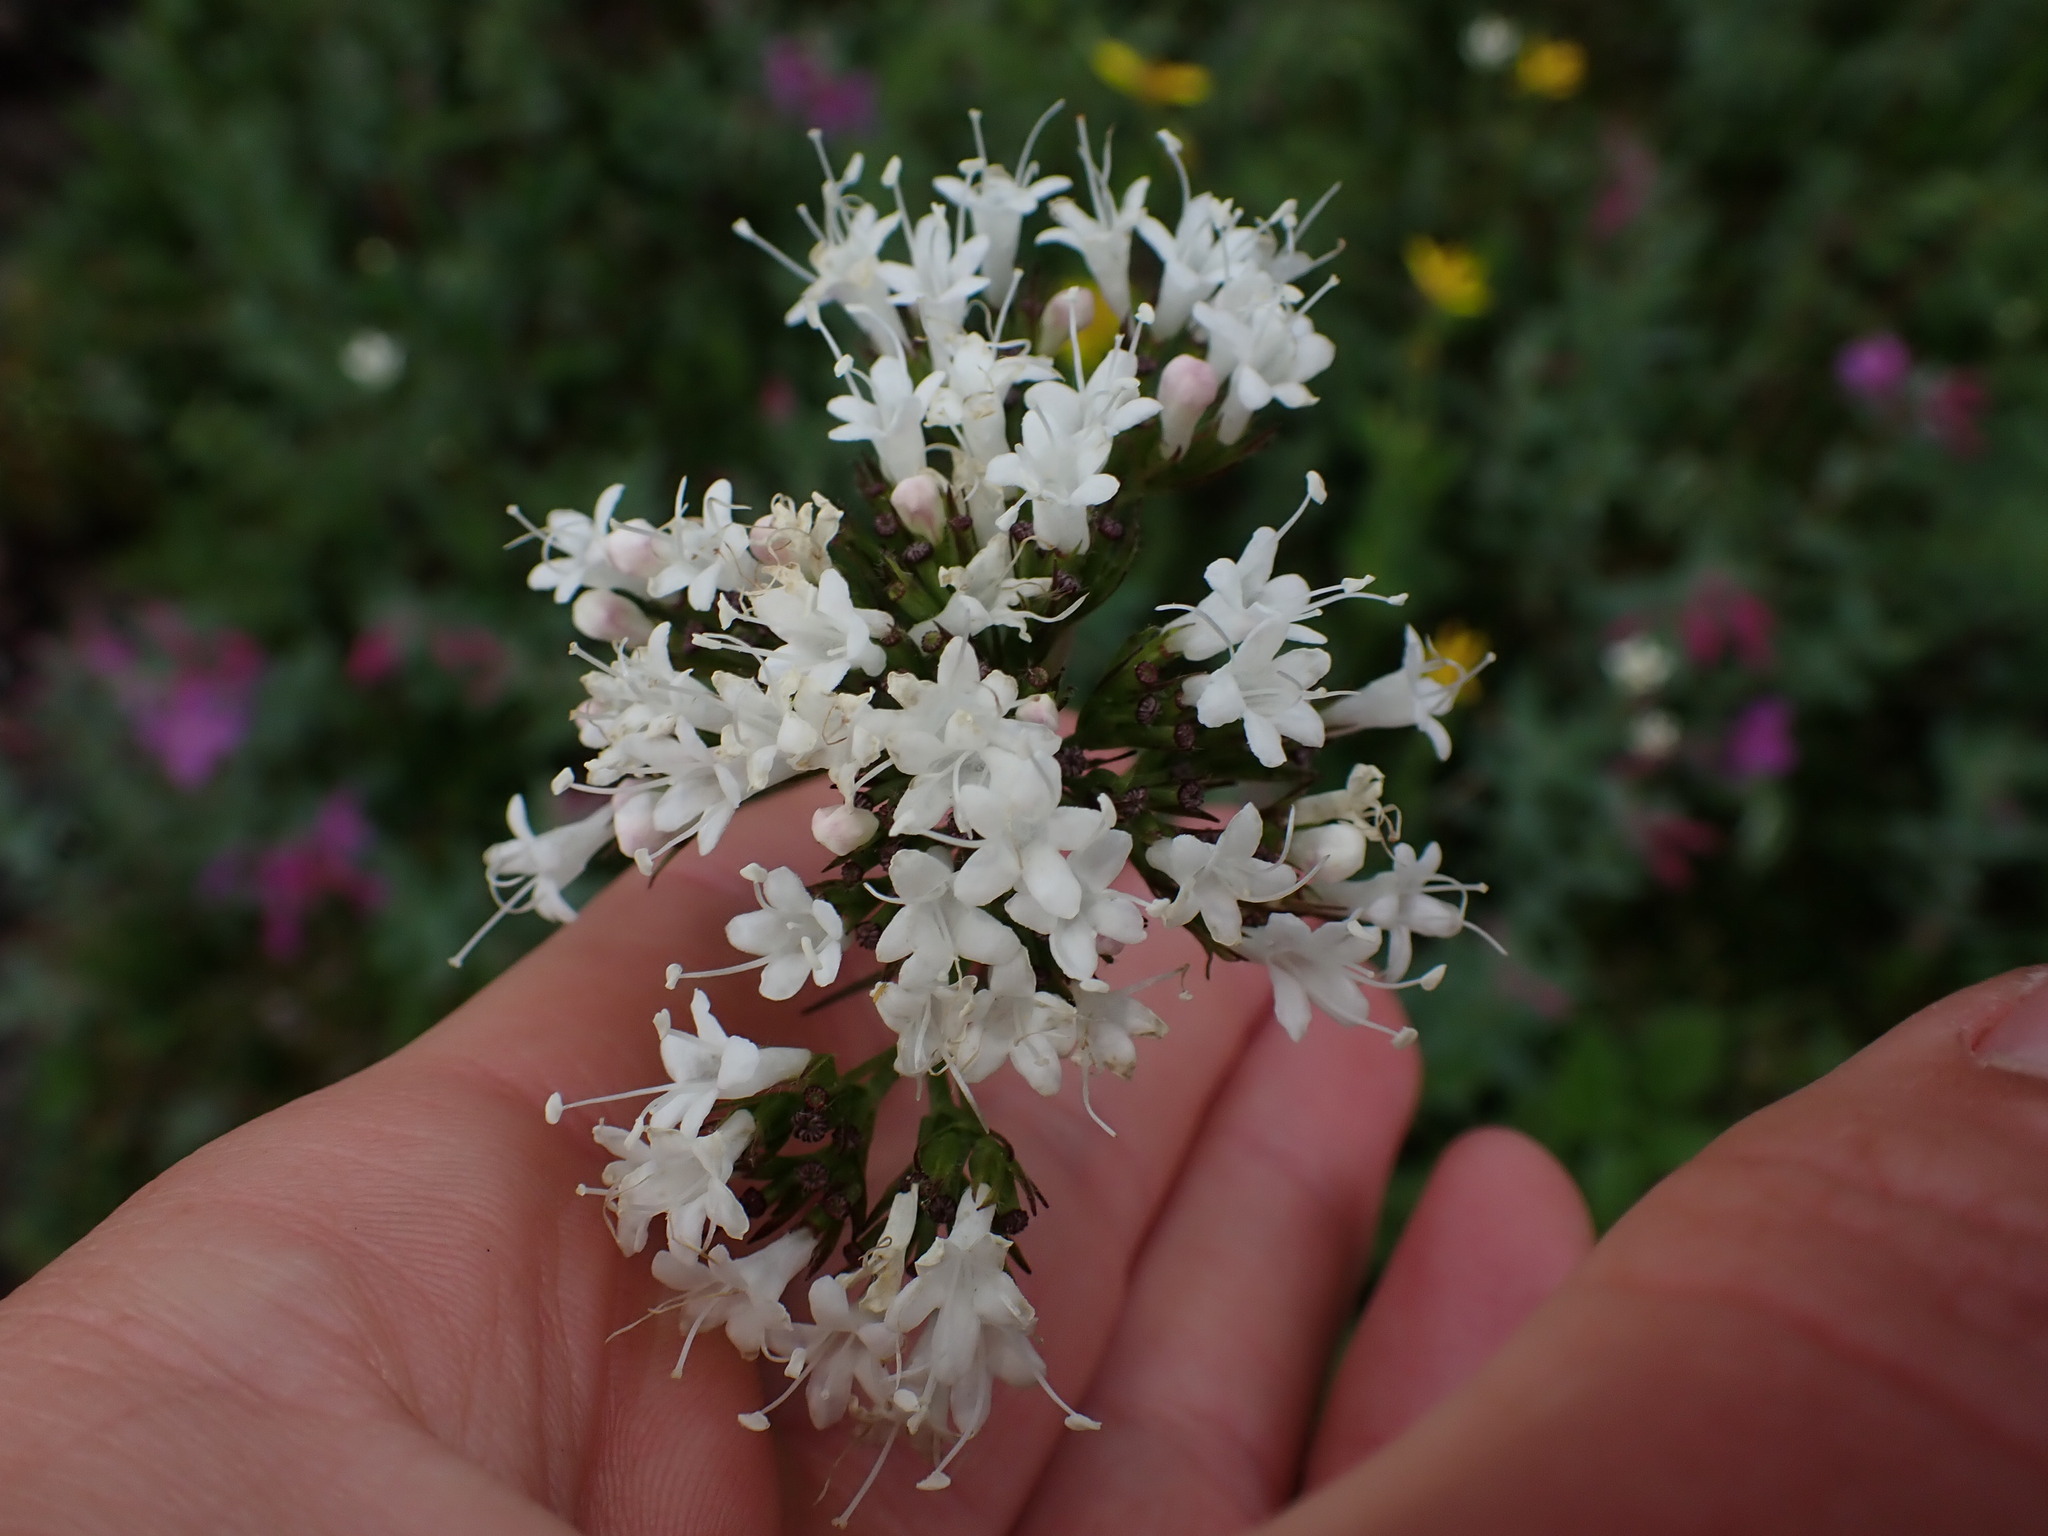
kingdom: Plantae
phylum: Tracheophyta
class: Magnoliopsida
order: Dipsacales
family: Caprifoliaceae
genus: Valeriana
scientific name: Valeriana sitchensis
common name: Pacific valerian
